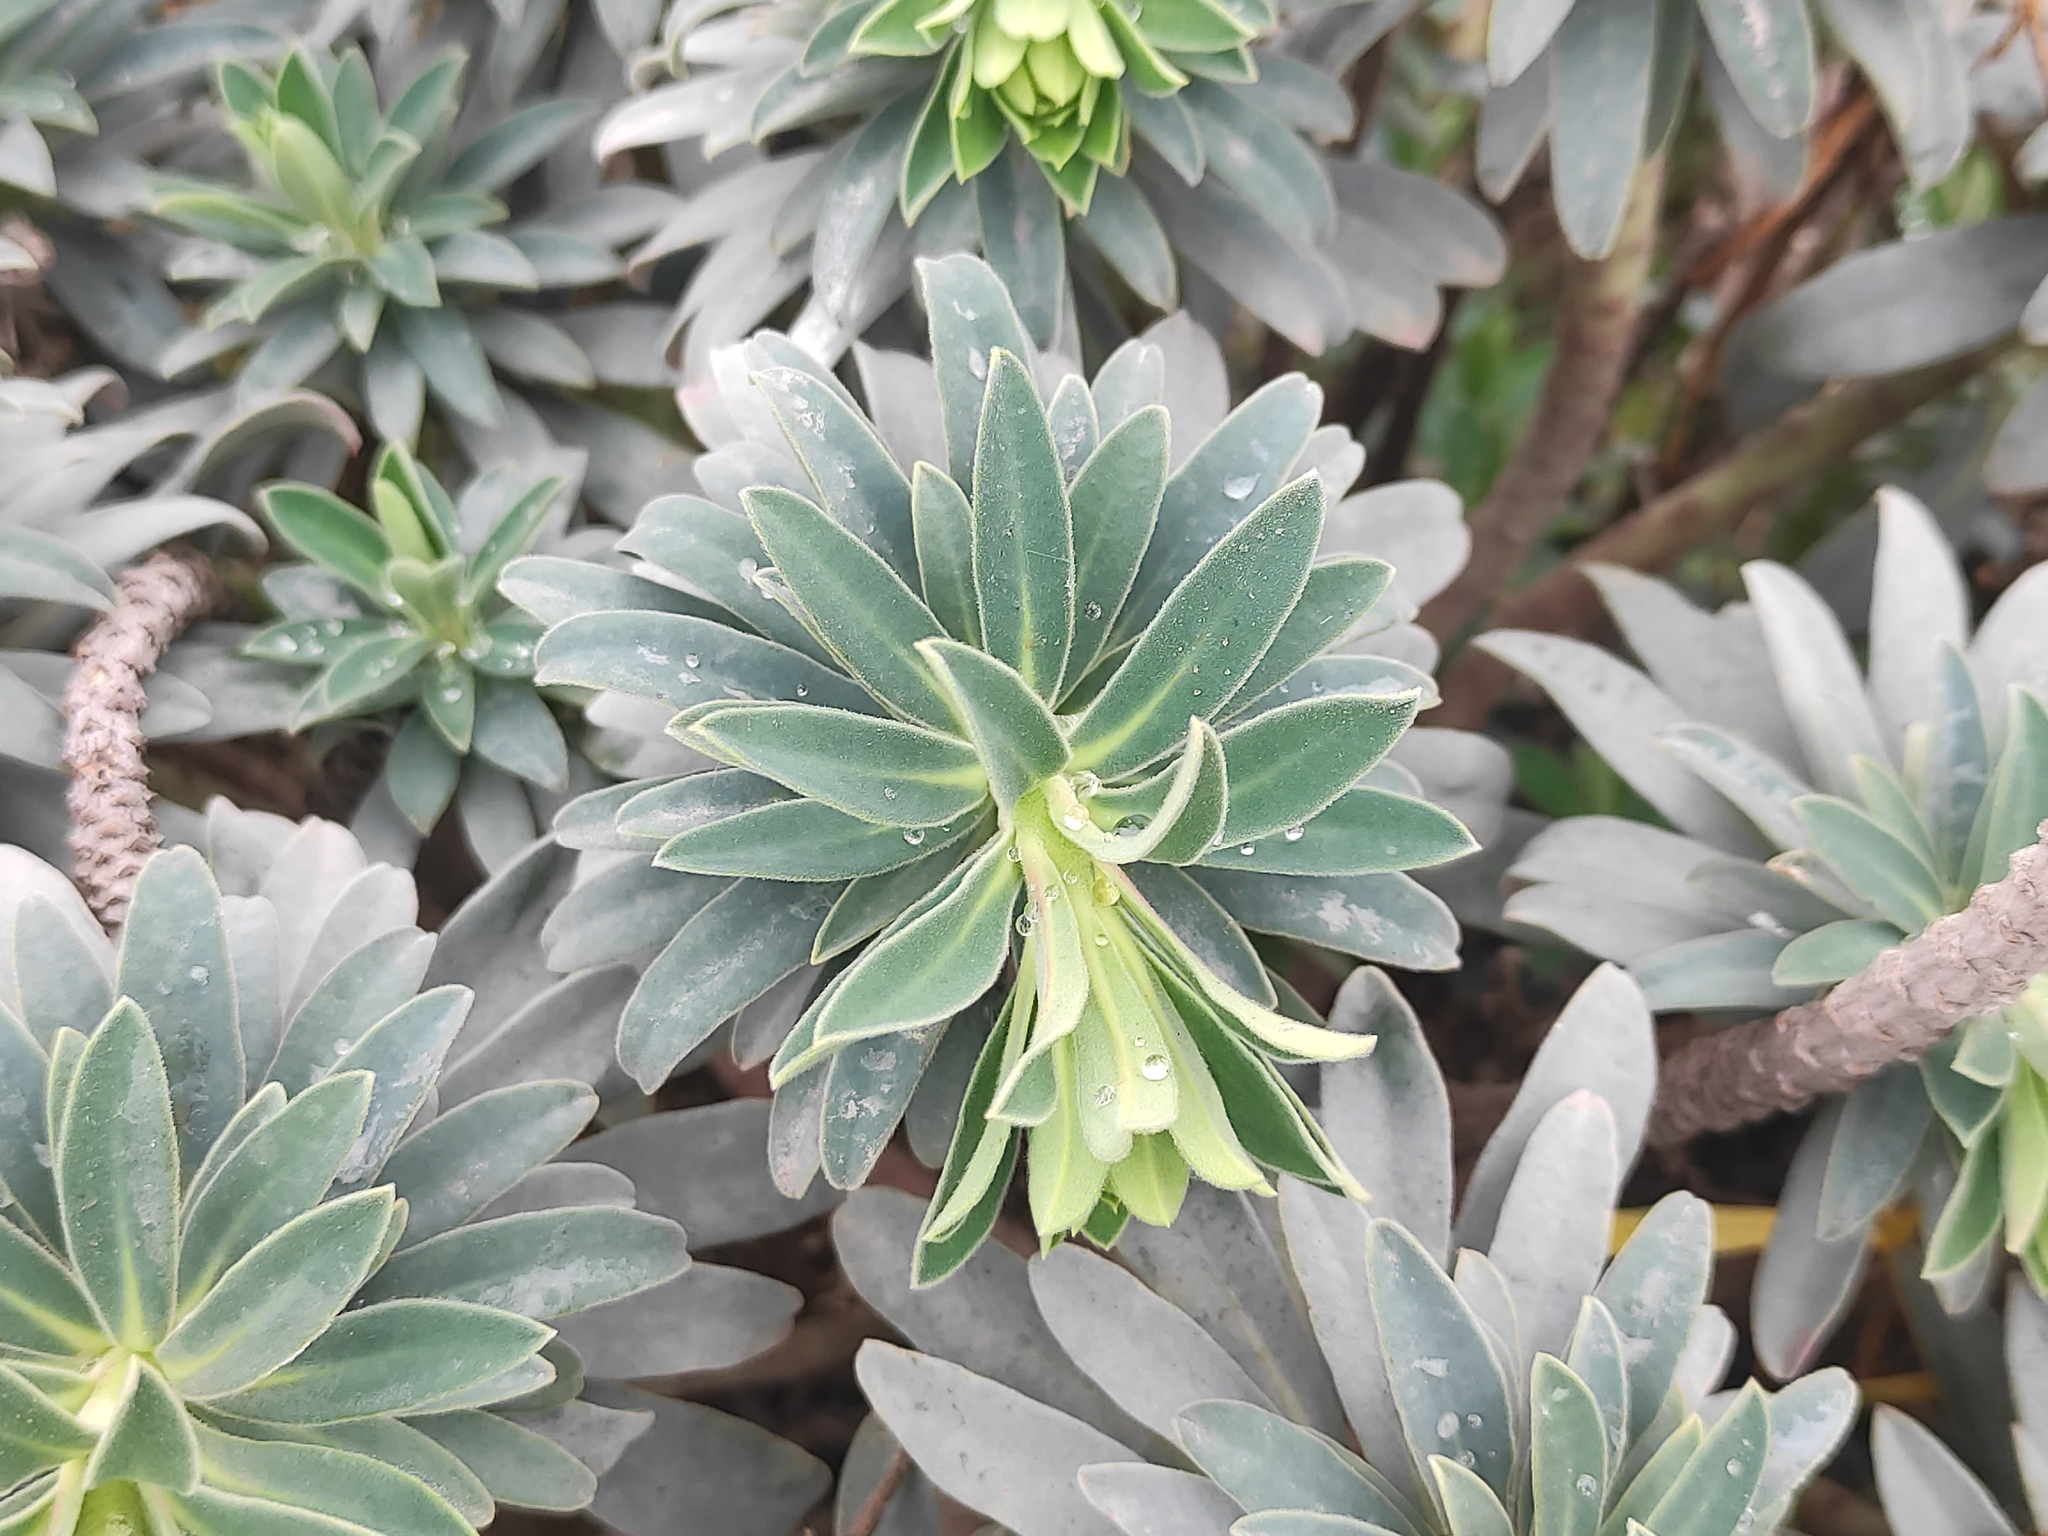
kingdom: Plantae
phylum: Tracheophyta
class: Magnoliopsida
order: Malpighiales
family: Euphorbiaceae
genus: Euphorbia
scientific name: Euphorbia characias
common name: Mediterranean spurge
